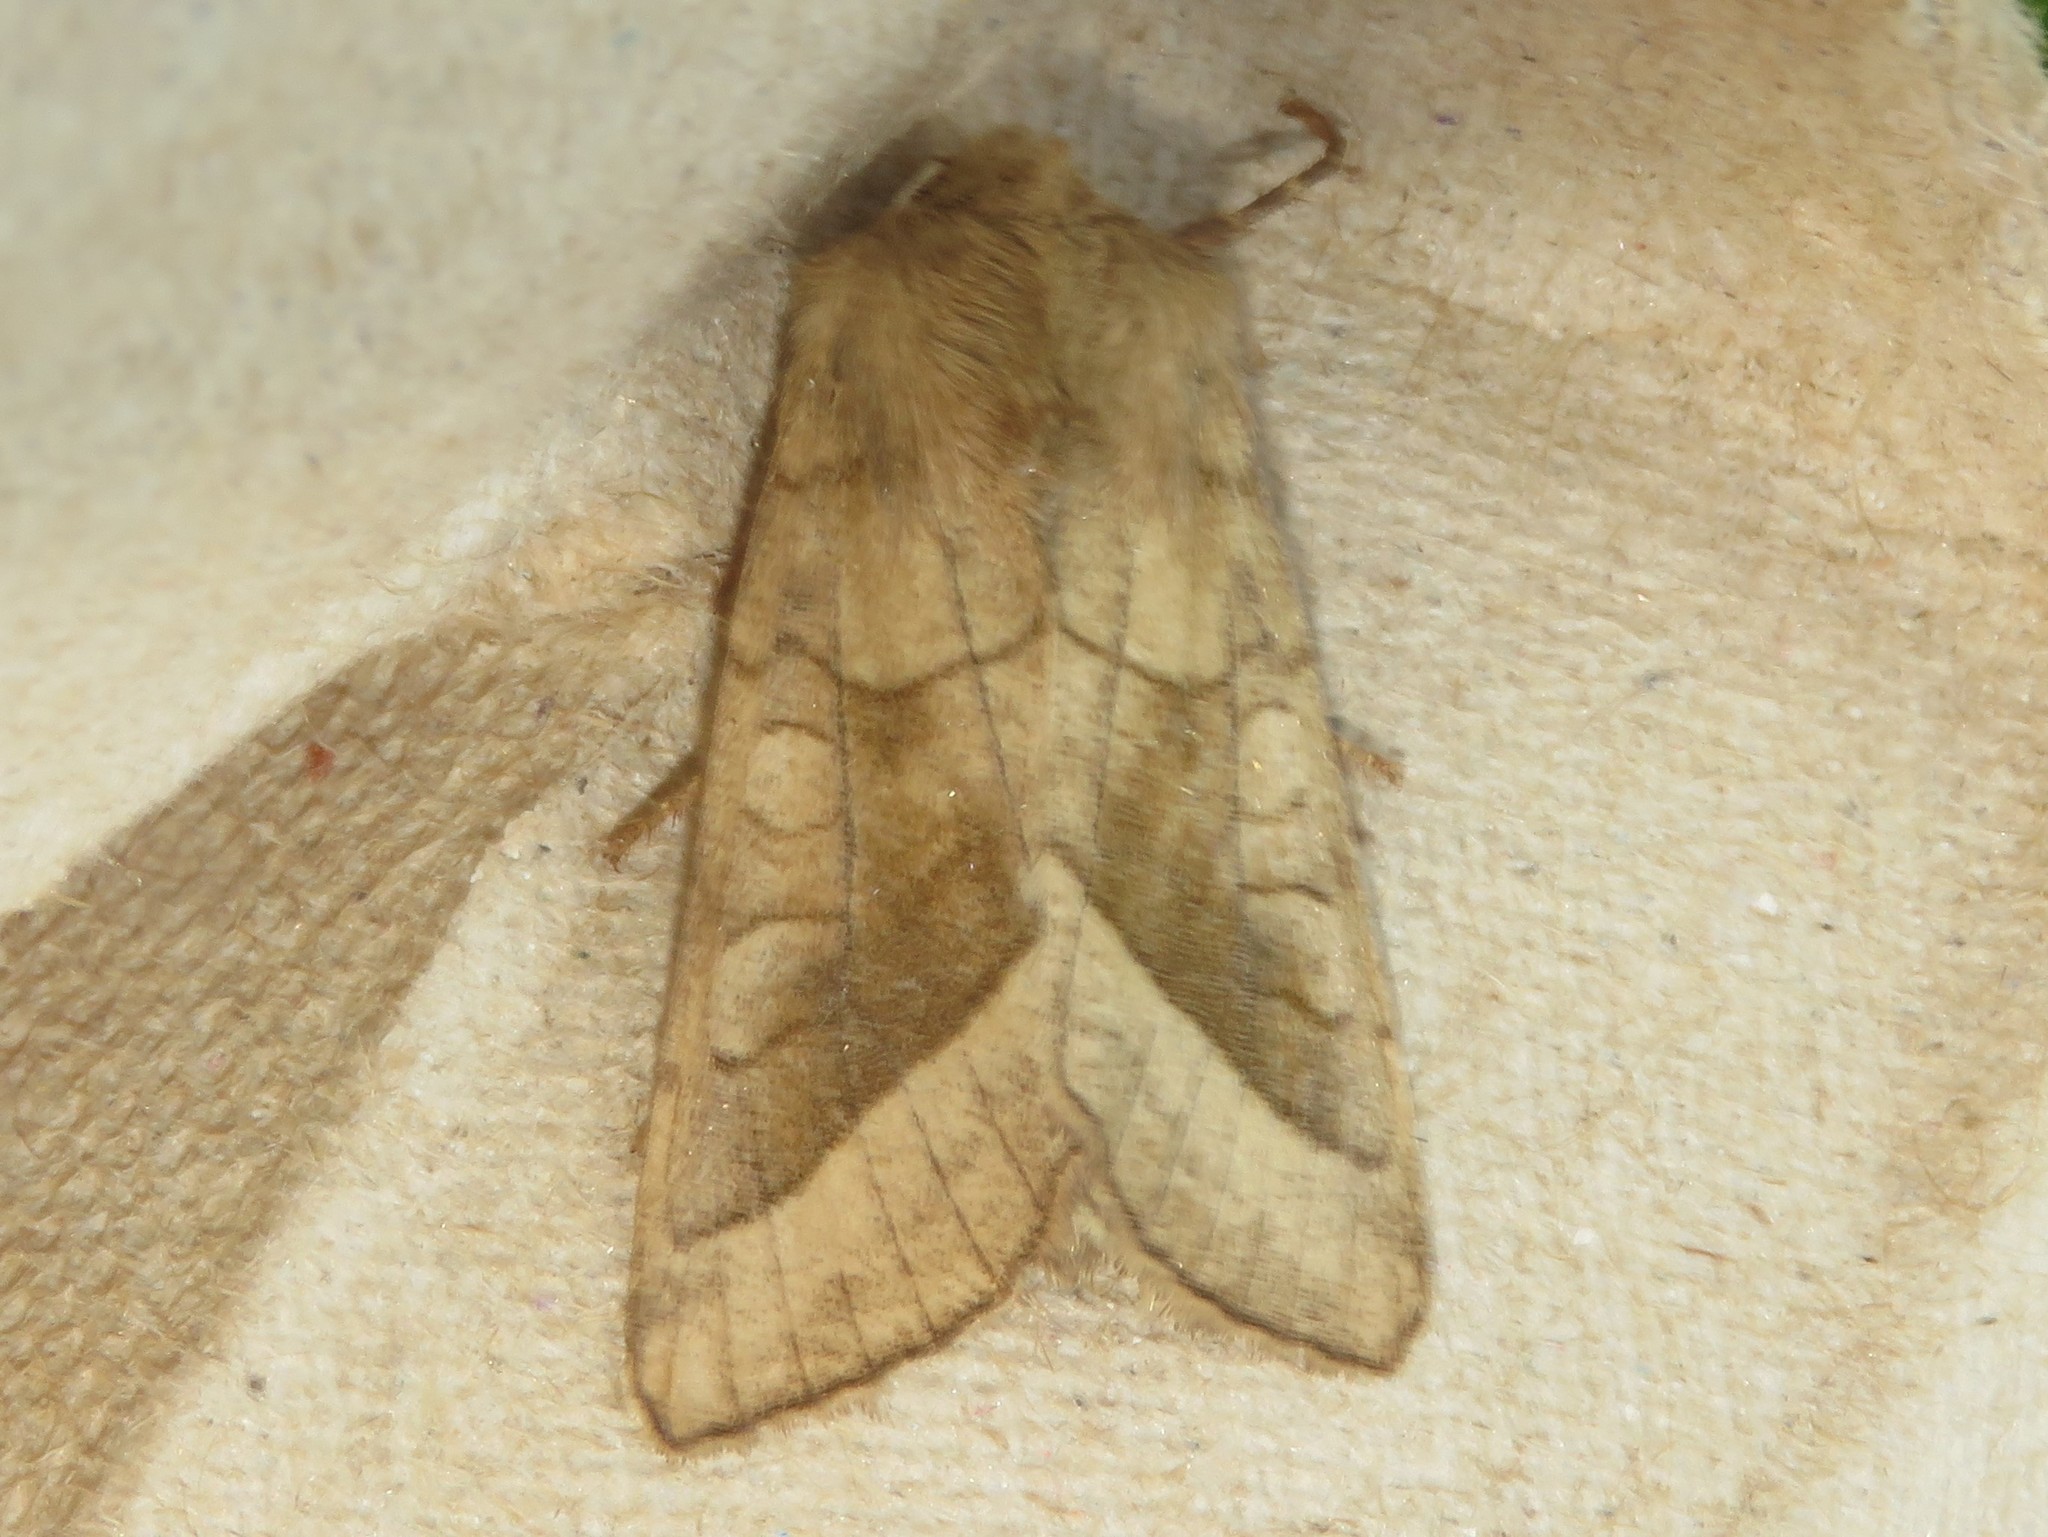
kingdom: Animalia
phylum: Arthropoda
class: Insecta
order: Lepidoptera
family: Noctuidae
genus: Hydraecia
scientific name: Hydraecia micacea
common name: Rosy rustic
